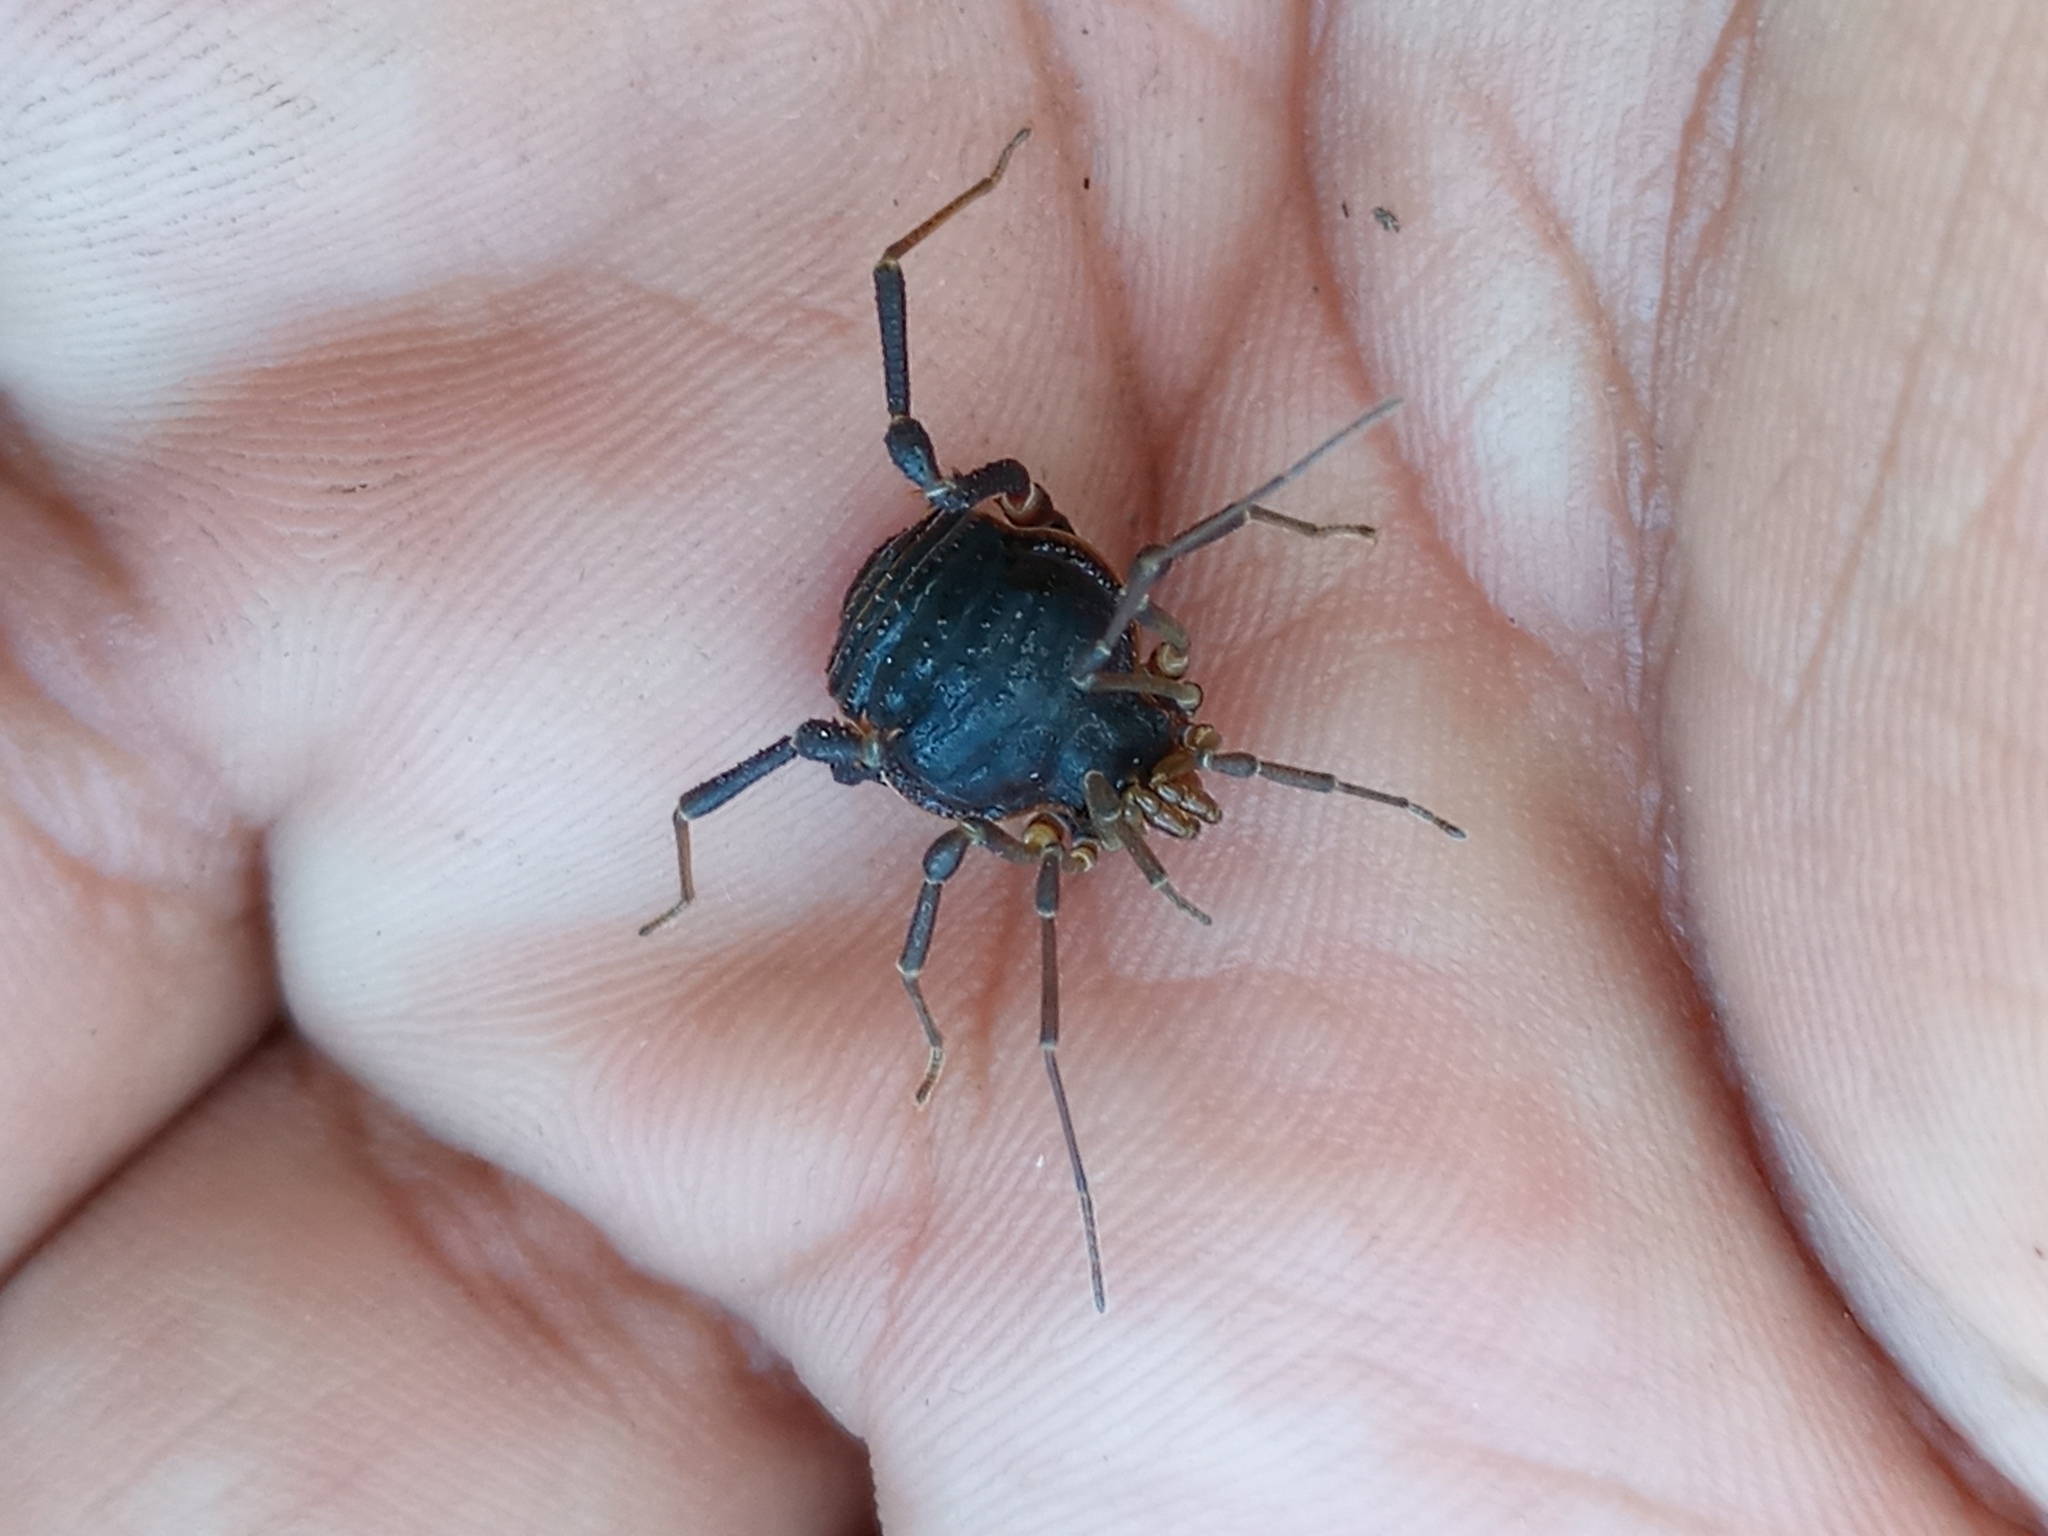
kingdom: Animalia
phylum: Arthropoda
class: Arachnida
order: Opiliones
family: Gonyleptidae
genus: Acanthopachylus
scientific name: Acanthopachylus robustus
